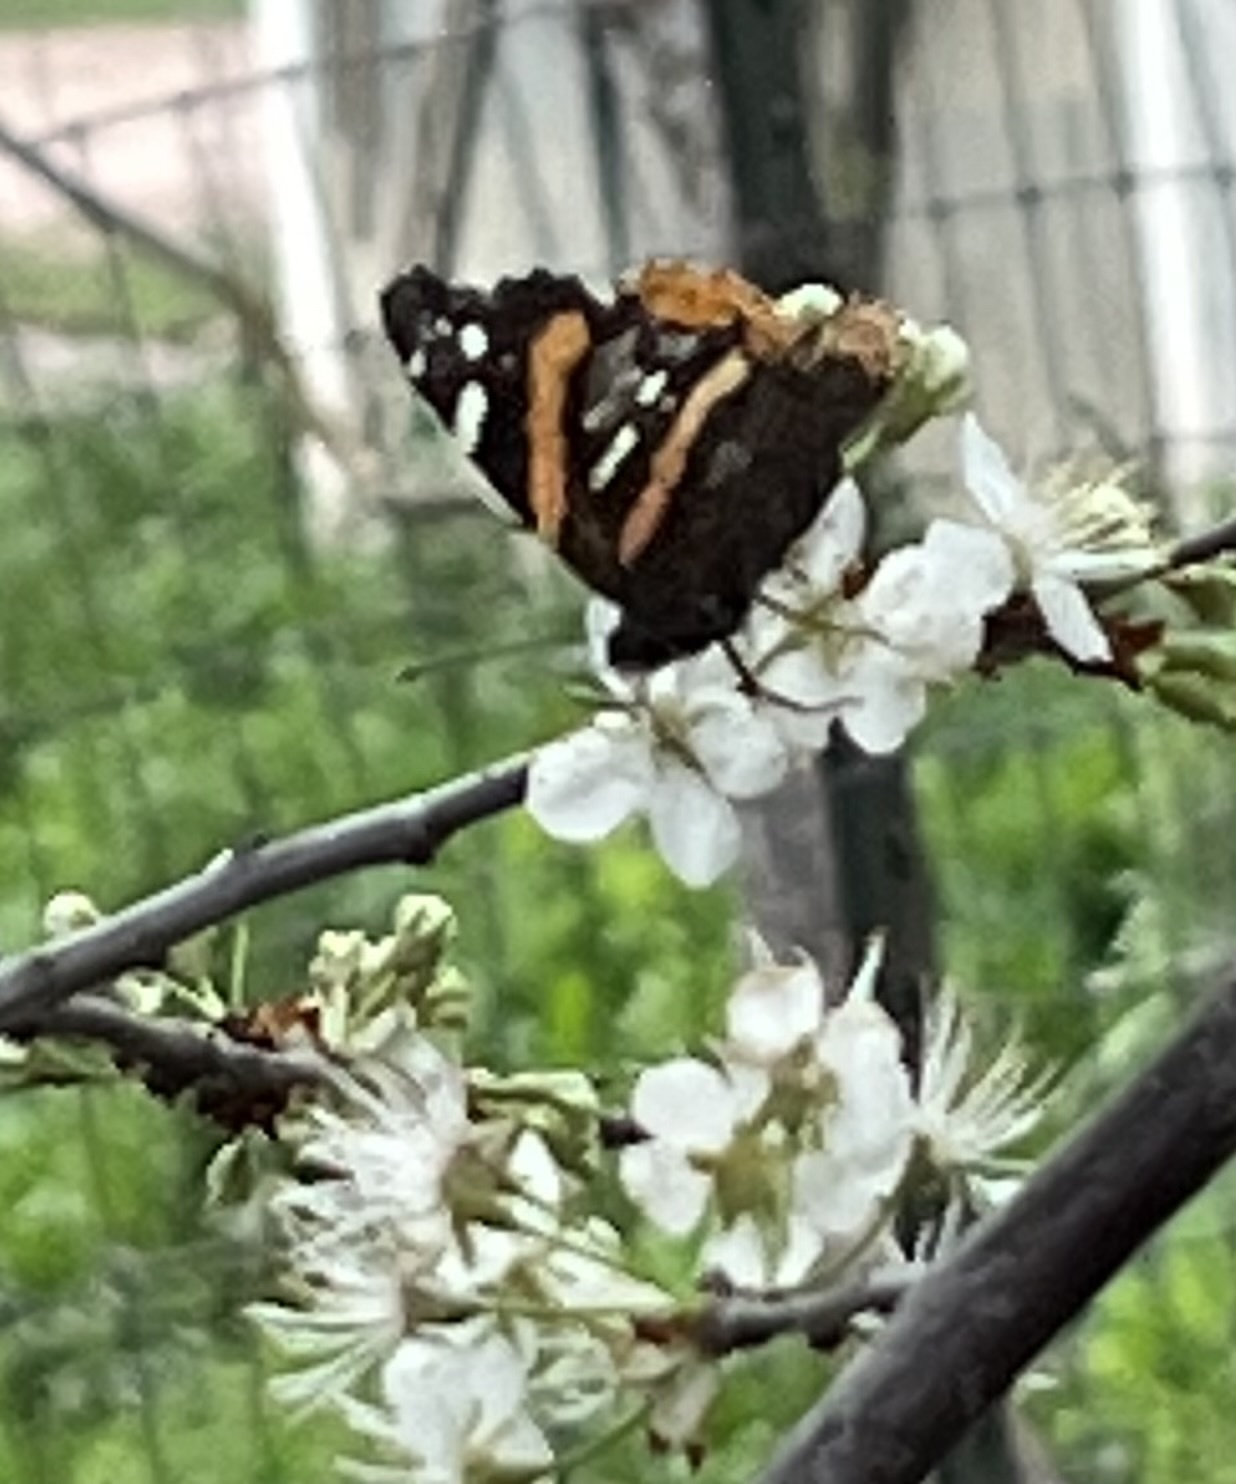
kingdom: Animalia
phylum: Arthropoda
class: Insecta
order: Lepidoptera
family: Nymphalidae
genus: Vanessa
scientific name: Vanessa atalanta
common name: Red admiral
